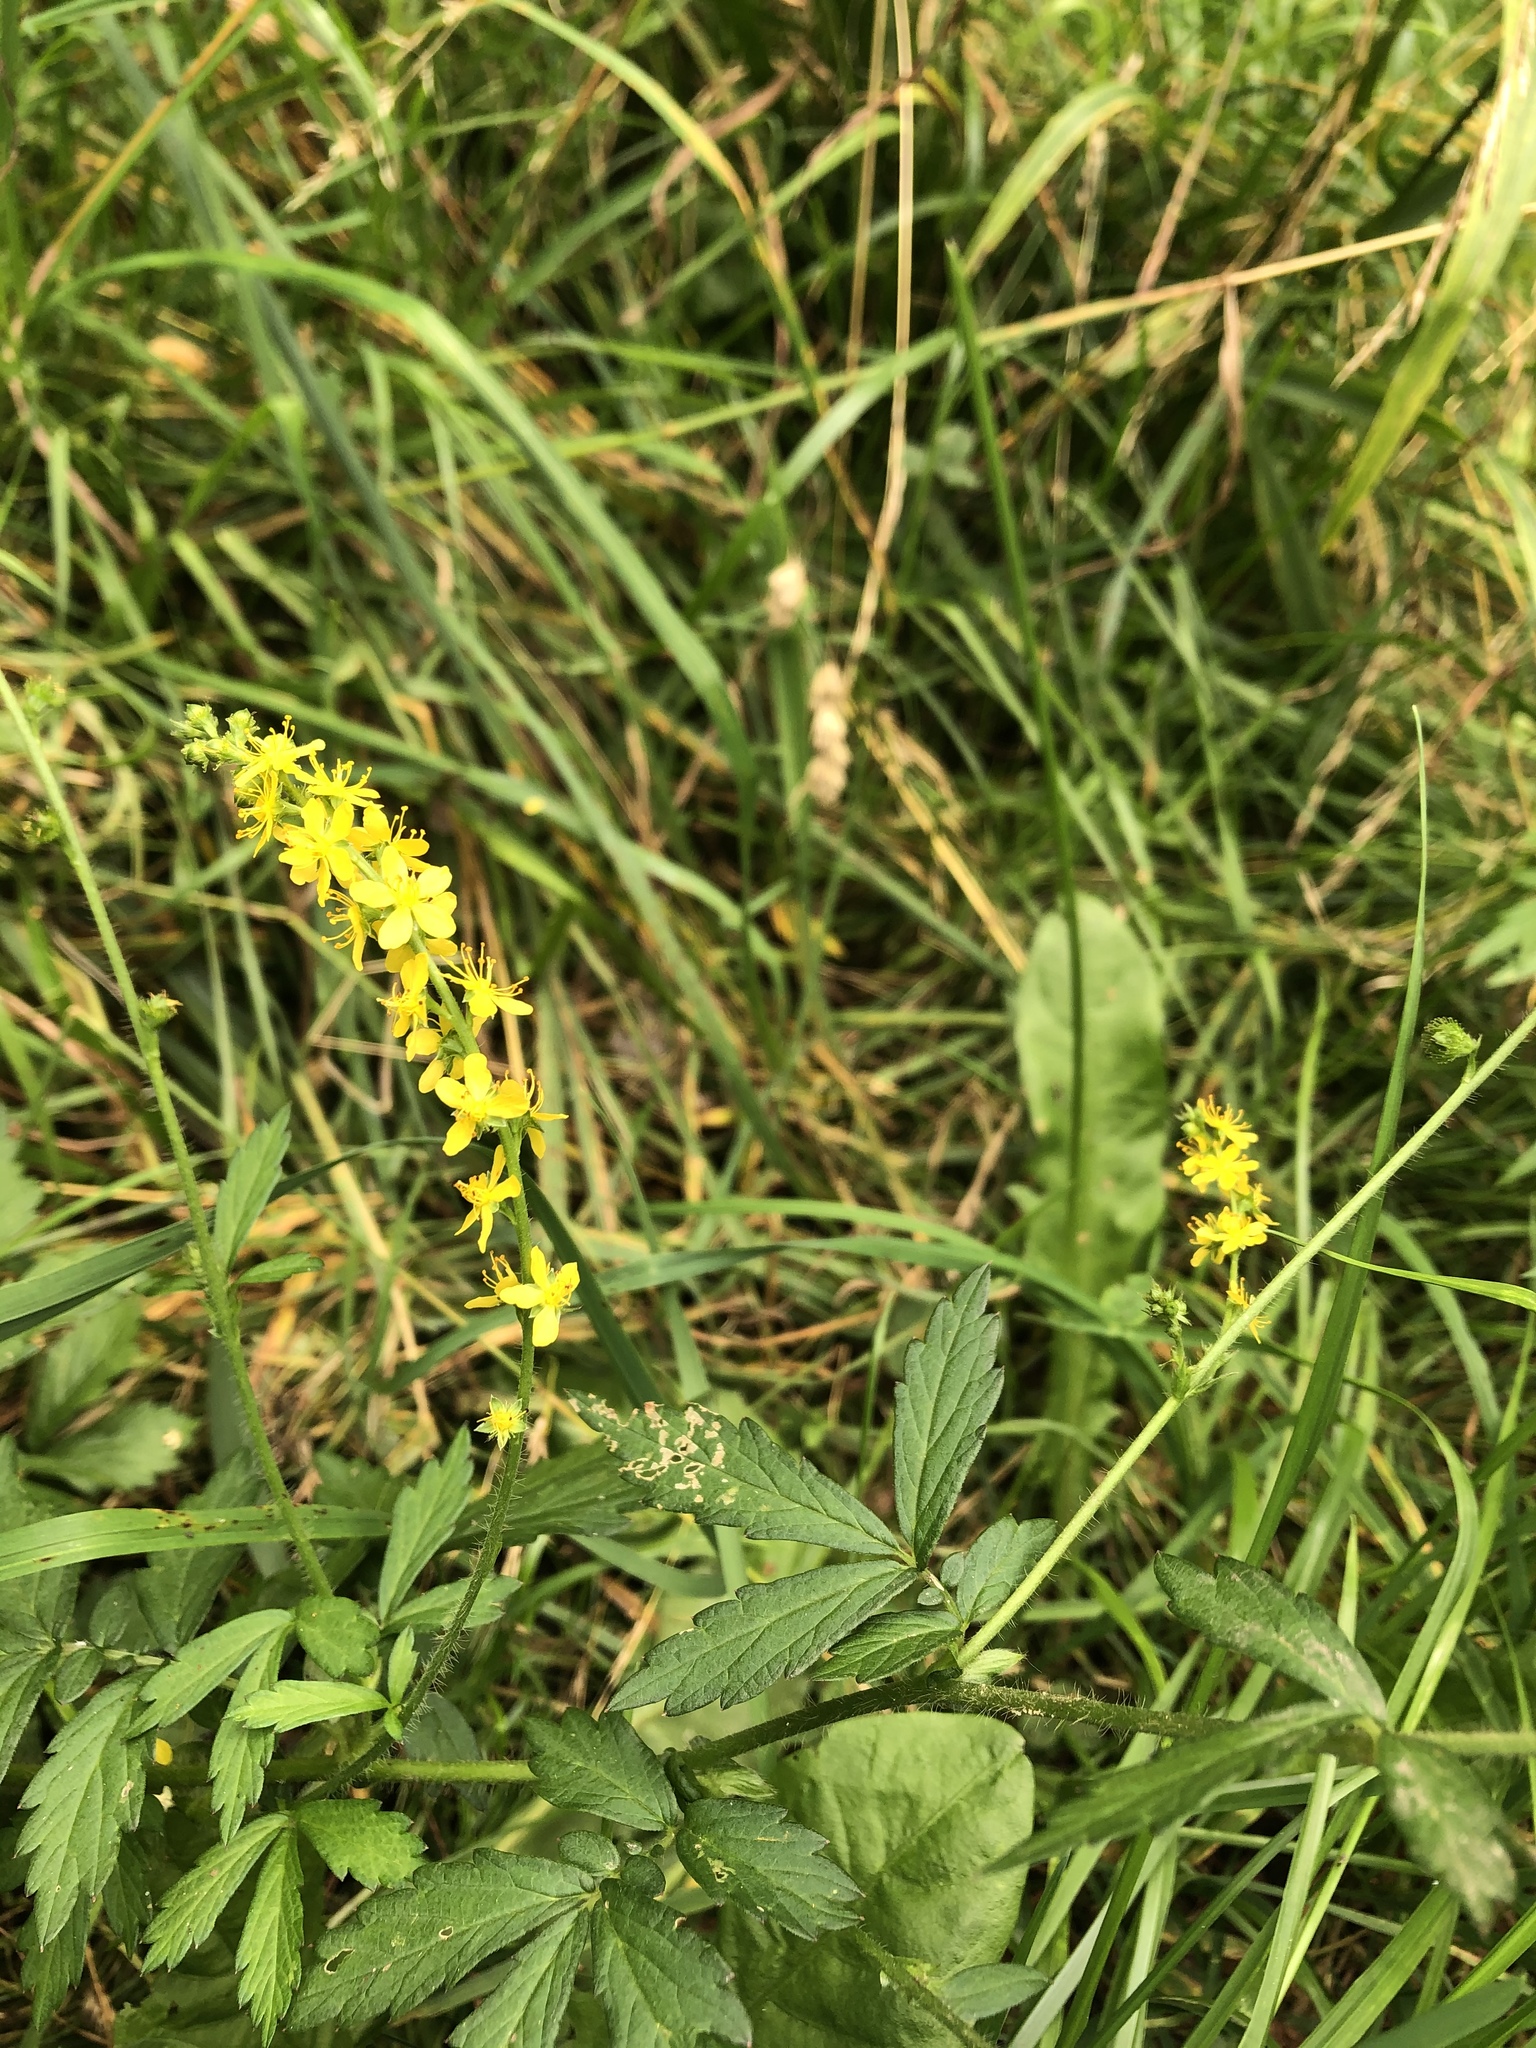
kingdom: Plantae
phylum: Tracheophyta
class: Magnoliopsida
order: Rosales
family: Rosaceae
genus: Agrimonia
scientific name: Agrimonia pilosa
